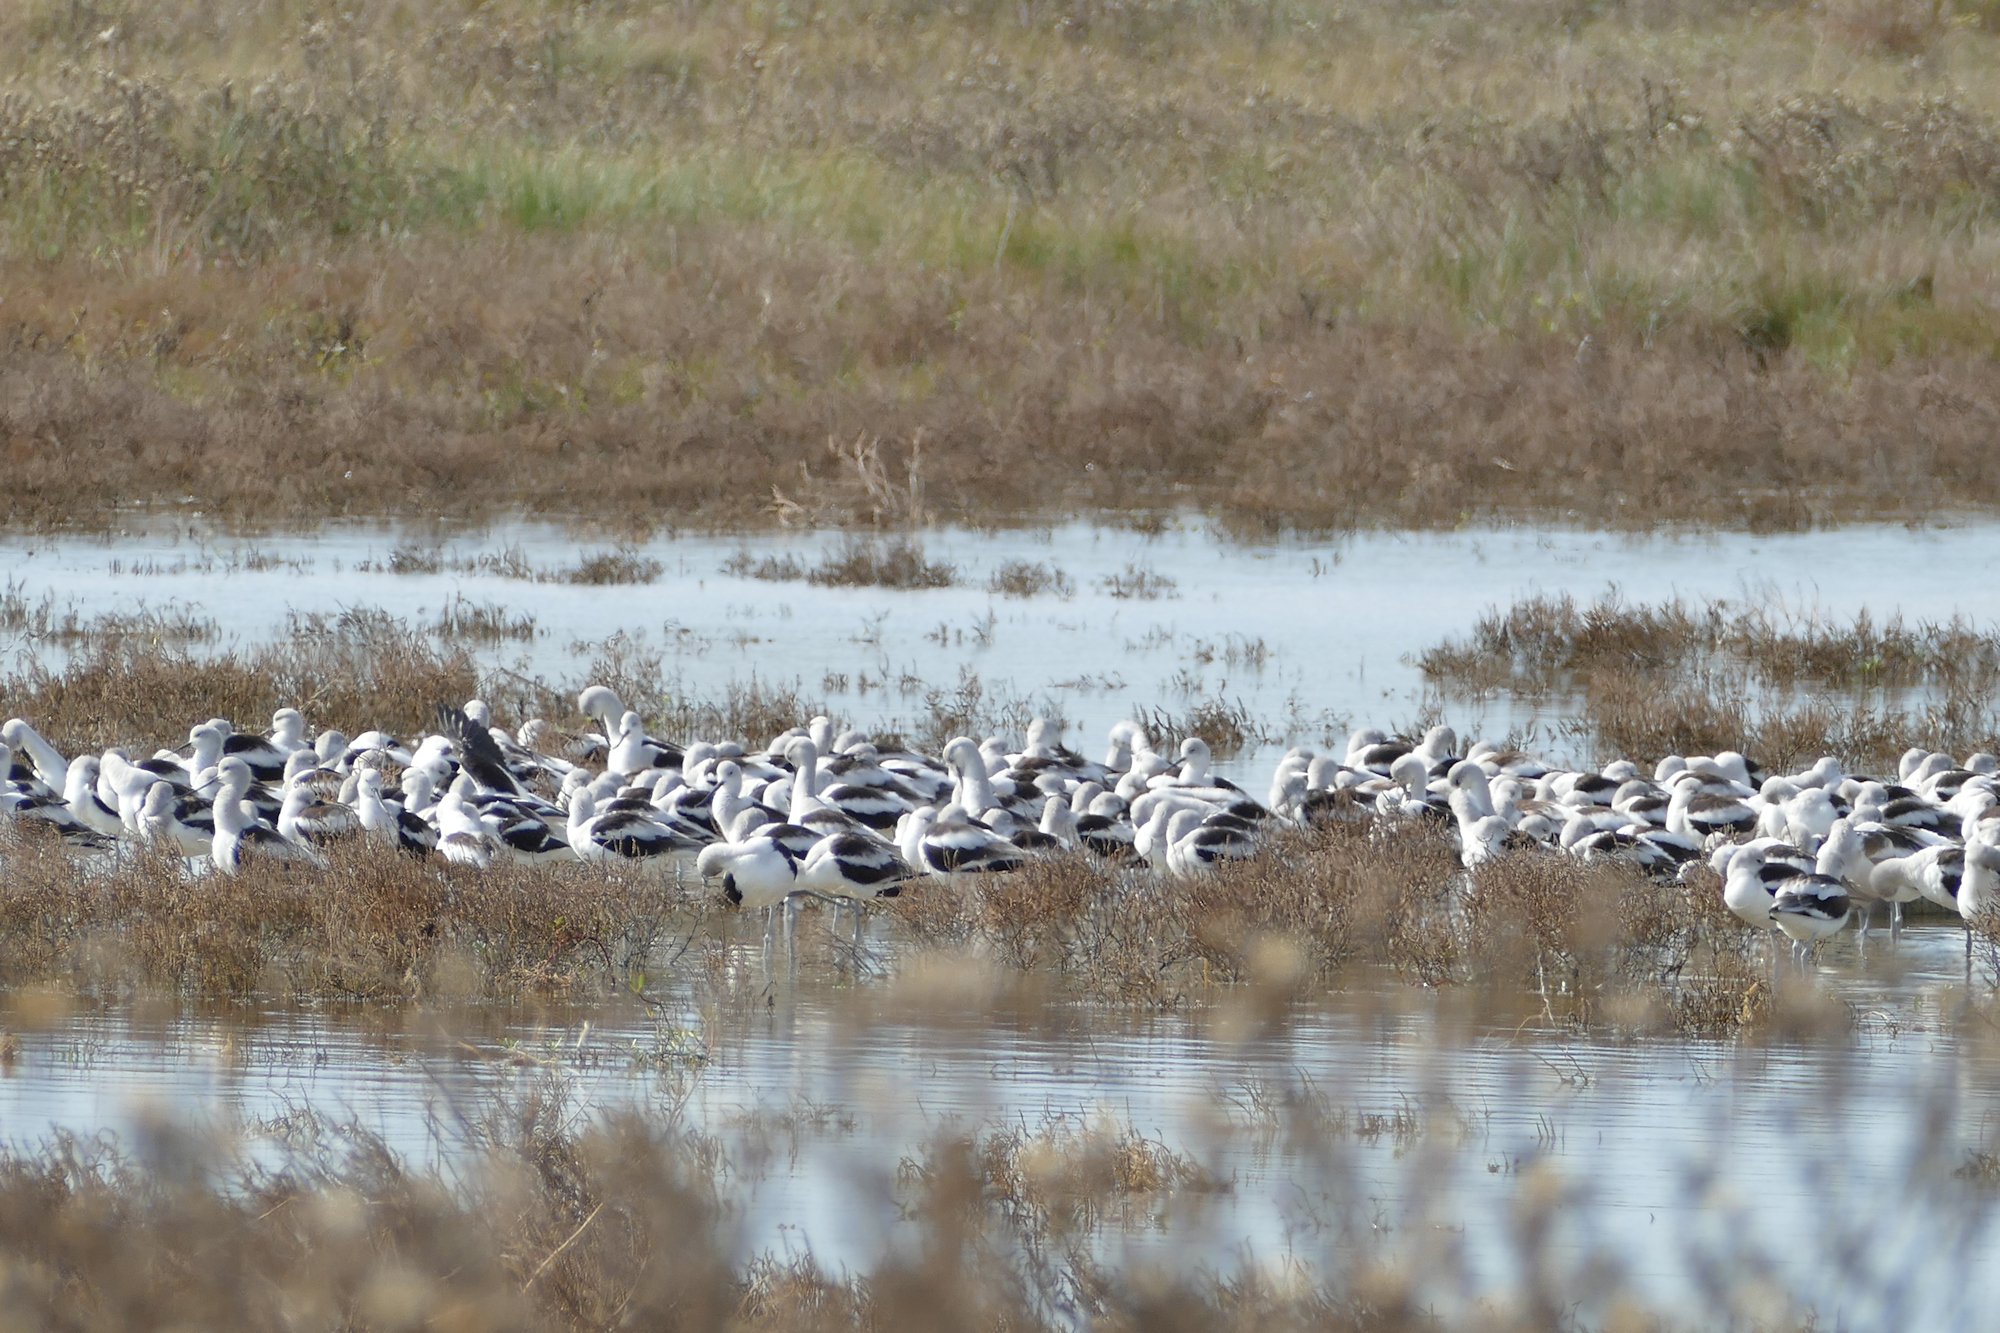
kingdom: Animalia
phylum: Chordata
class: Aves
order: Charadriiformes
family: Recurvirostridae
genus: Recurvirostra
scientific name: Recurvirostra americana
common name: American avocet
